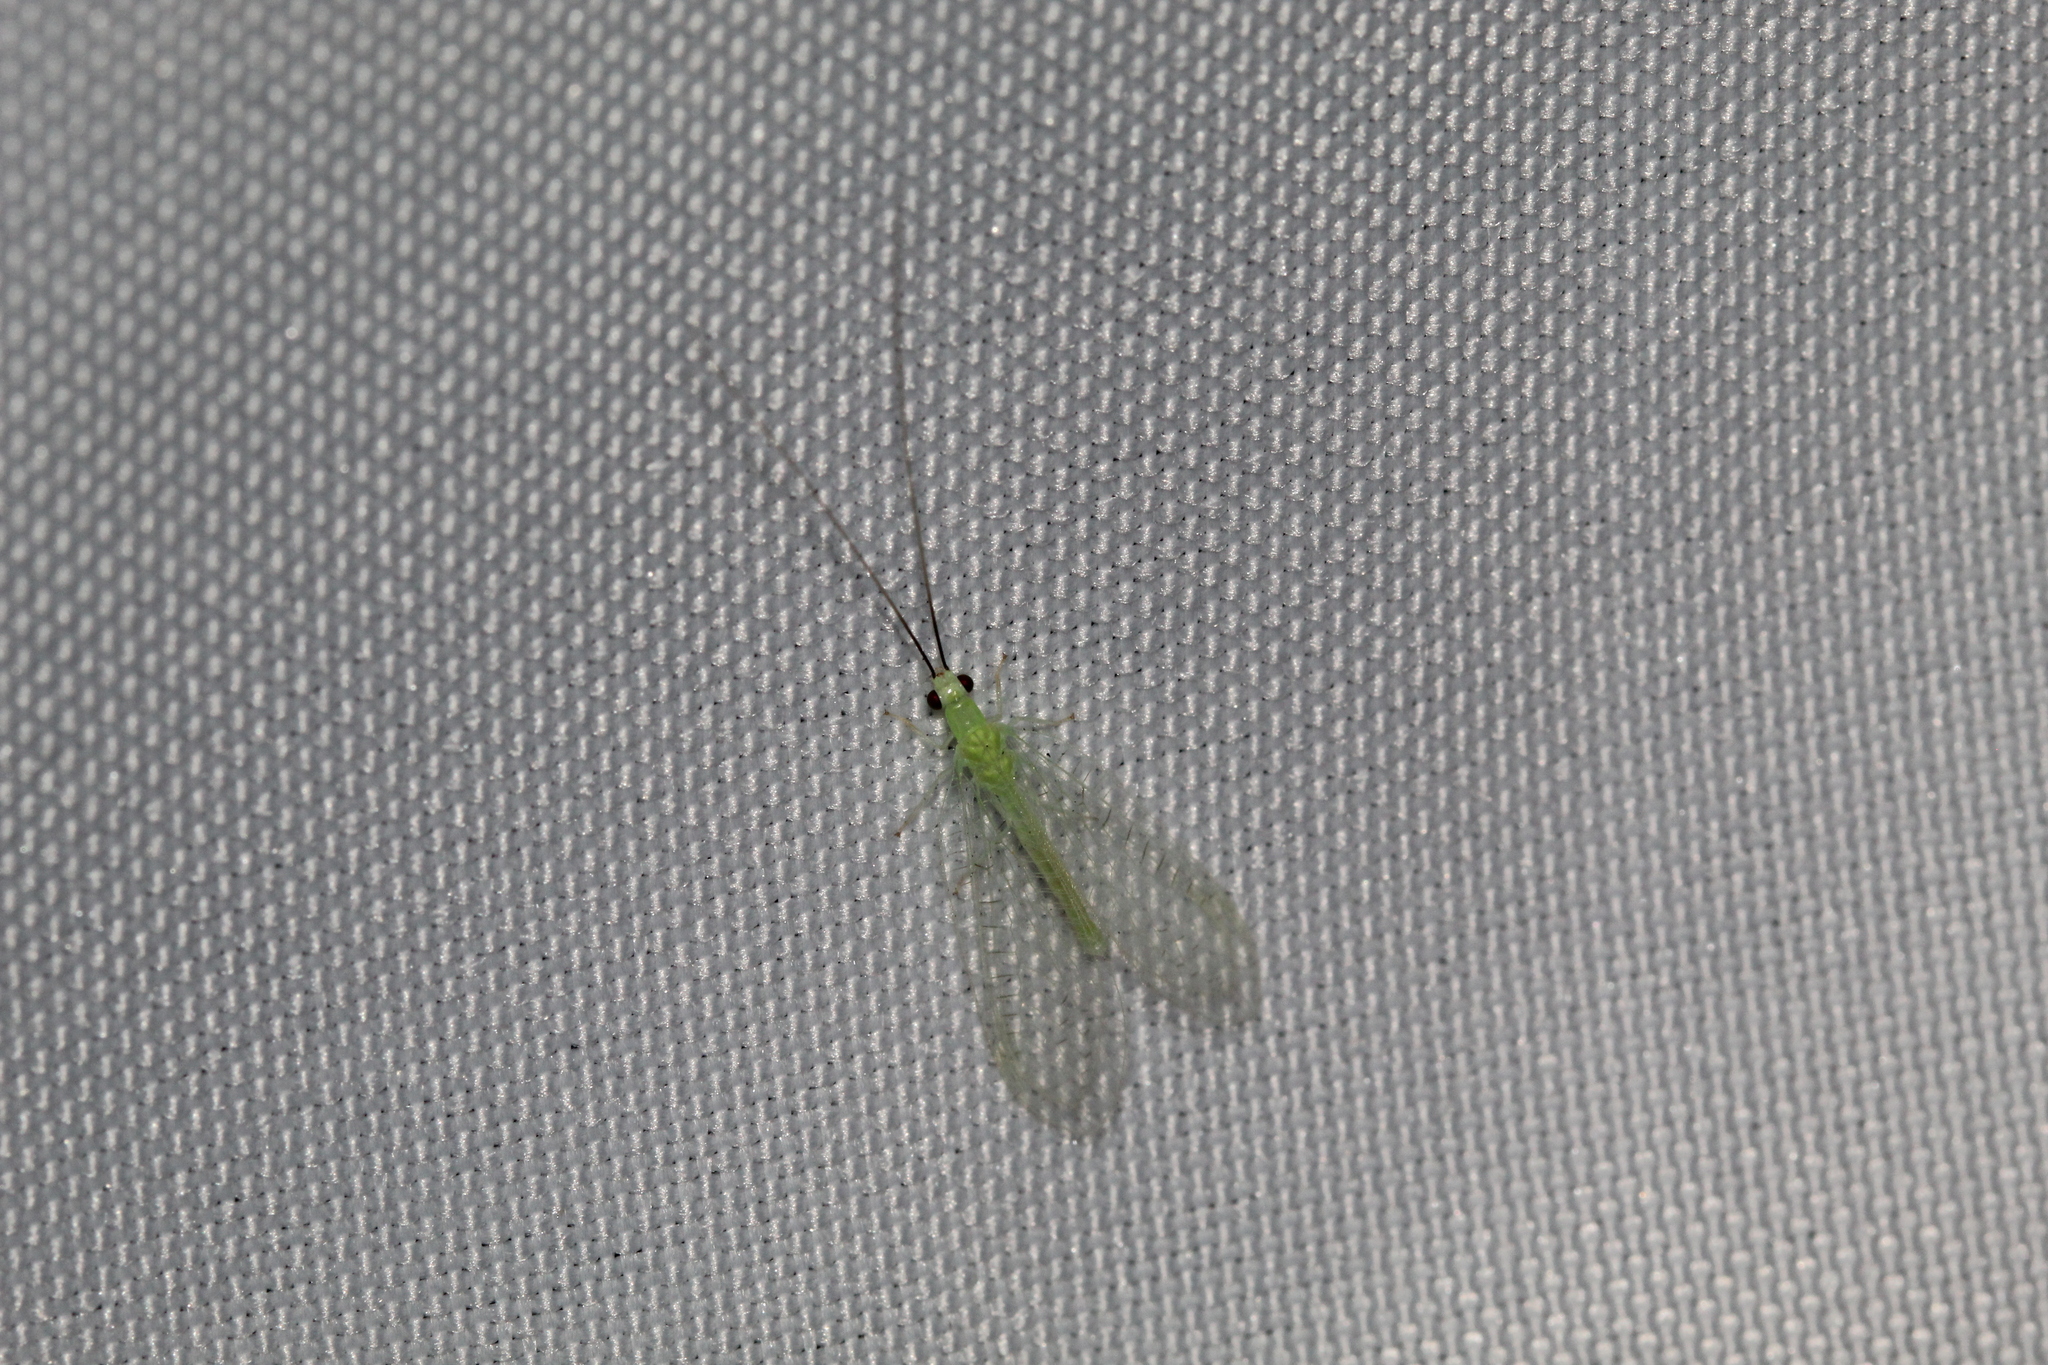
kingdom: Animalia
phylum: Arthropoda
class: Insecta
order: Neuroptera
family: Chrysopidae
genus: Chrysopa
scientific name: Chrysopa nigricornis
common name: Black-horned green lacewing
